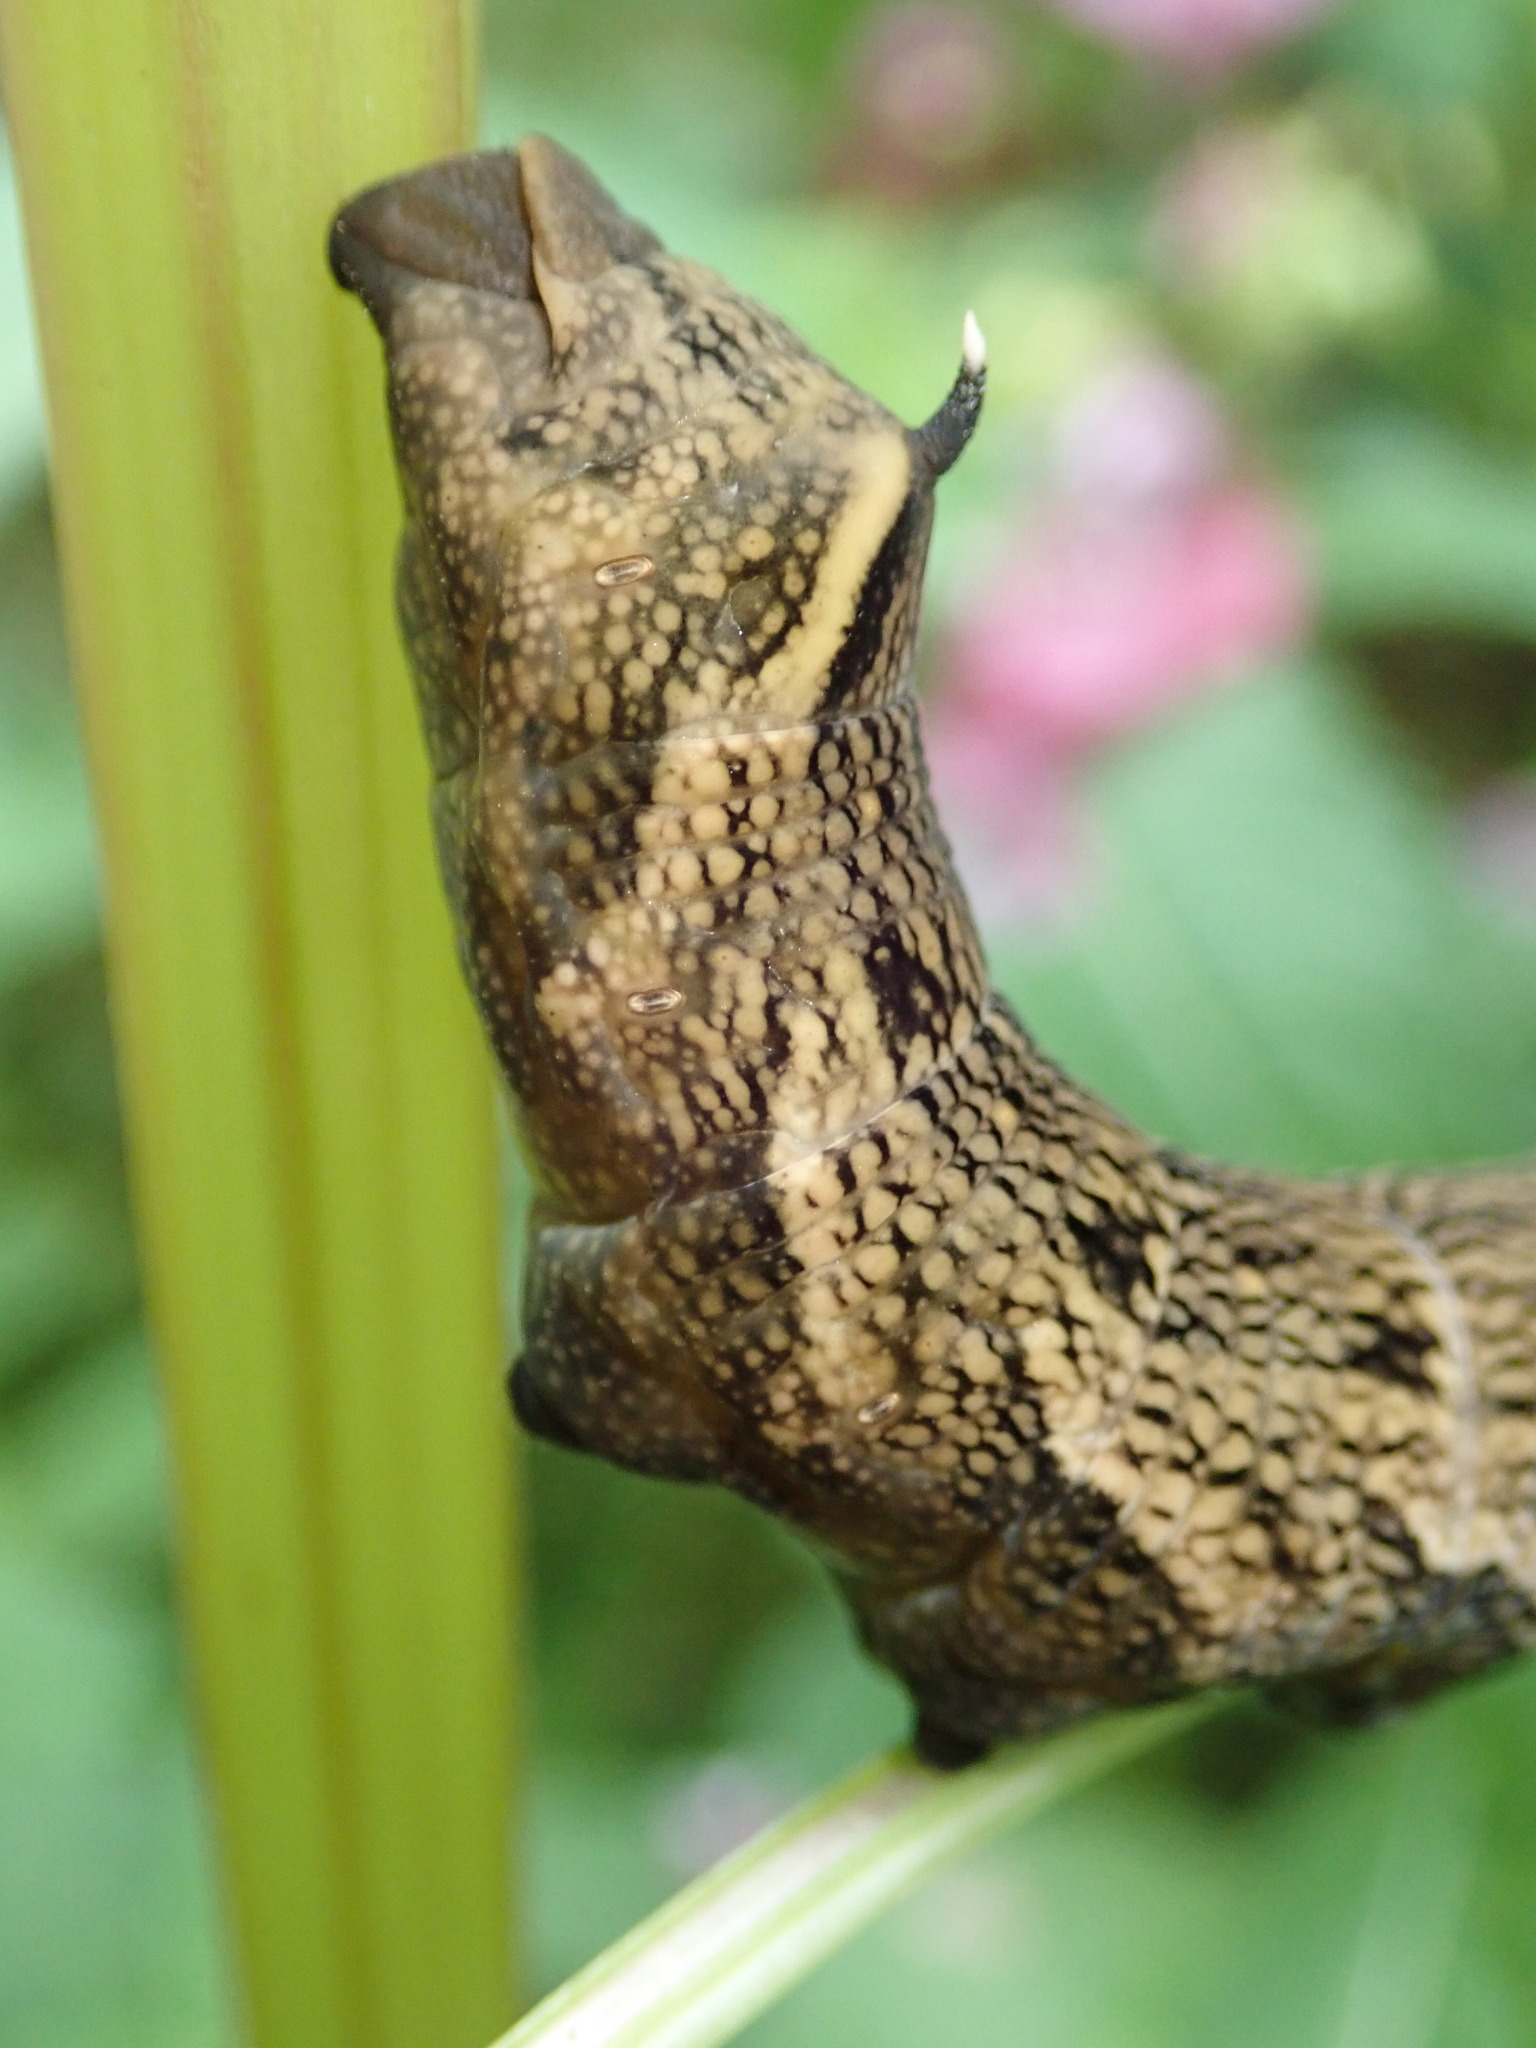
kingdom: Animalia
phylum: Arthropoda
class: Insecta
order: Lepidoptera
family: Sphingidae
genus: Deilephila
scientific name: Deilephila elpenor
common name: Elephant hawk-moth
